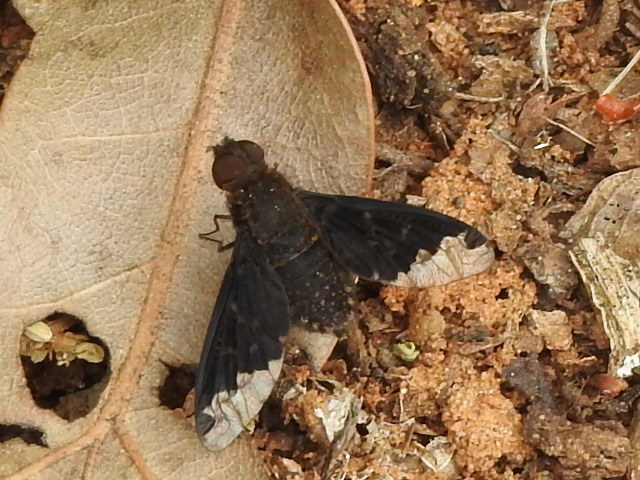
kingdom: Animalia
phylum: Arthropoda
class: Insecta
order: Diptera
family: Bombyliidae
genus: Hemipenthes
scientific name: Hemipenthes sinuosus
